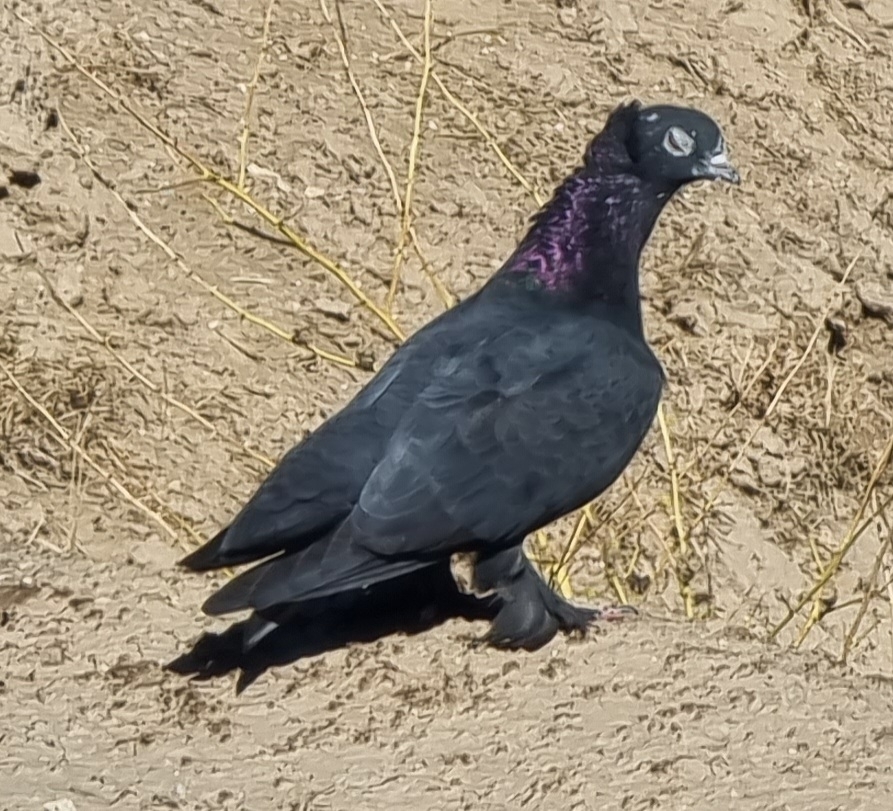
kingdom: Animalia
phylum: Chordata
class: Aves
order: Columbiformes
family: Columbidae
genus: Columba
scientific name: Columba livia
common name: Rock pigeon
